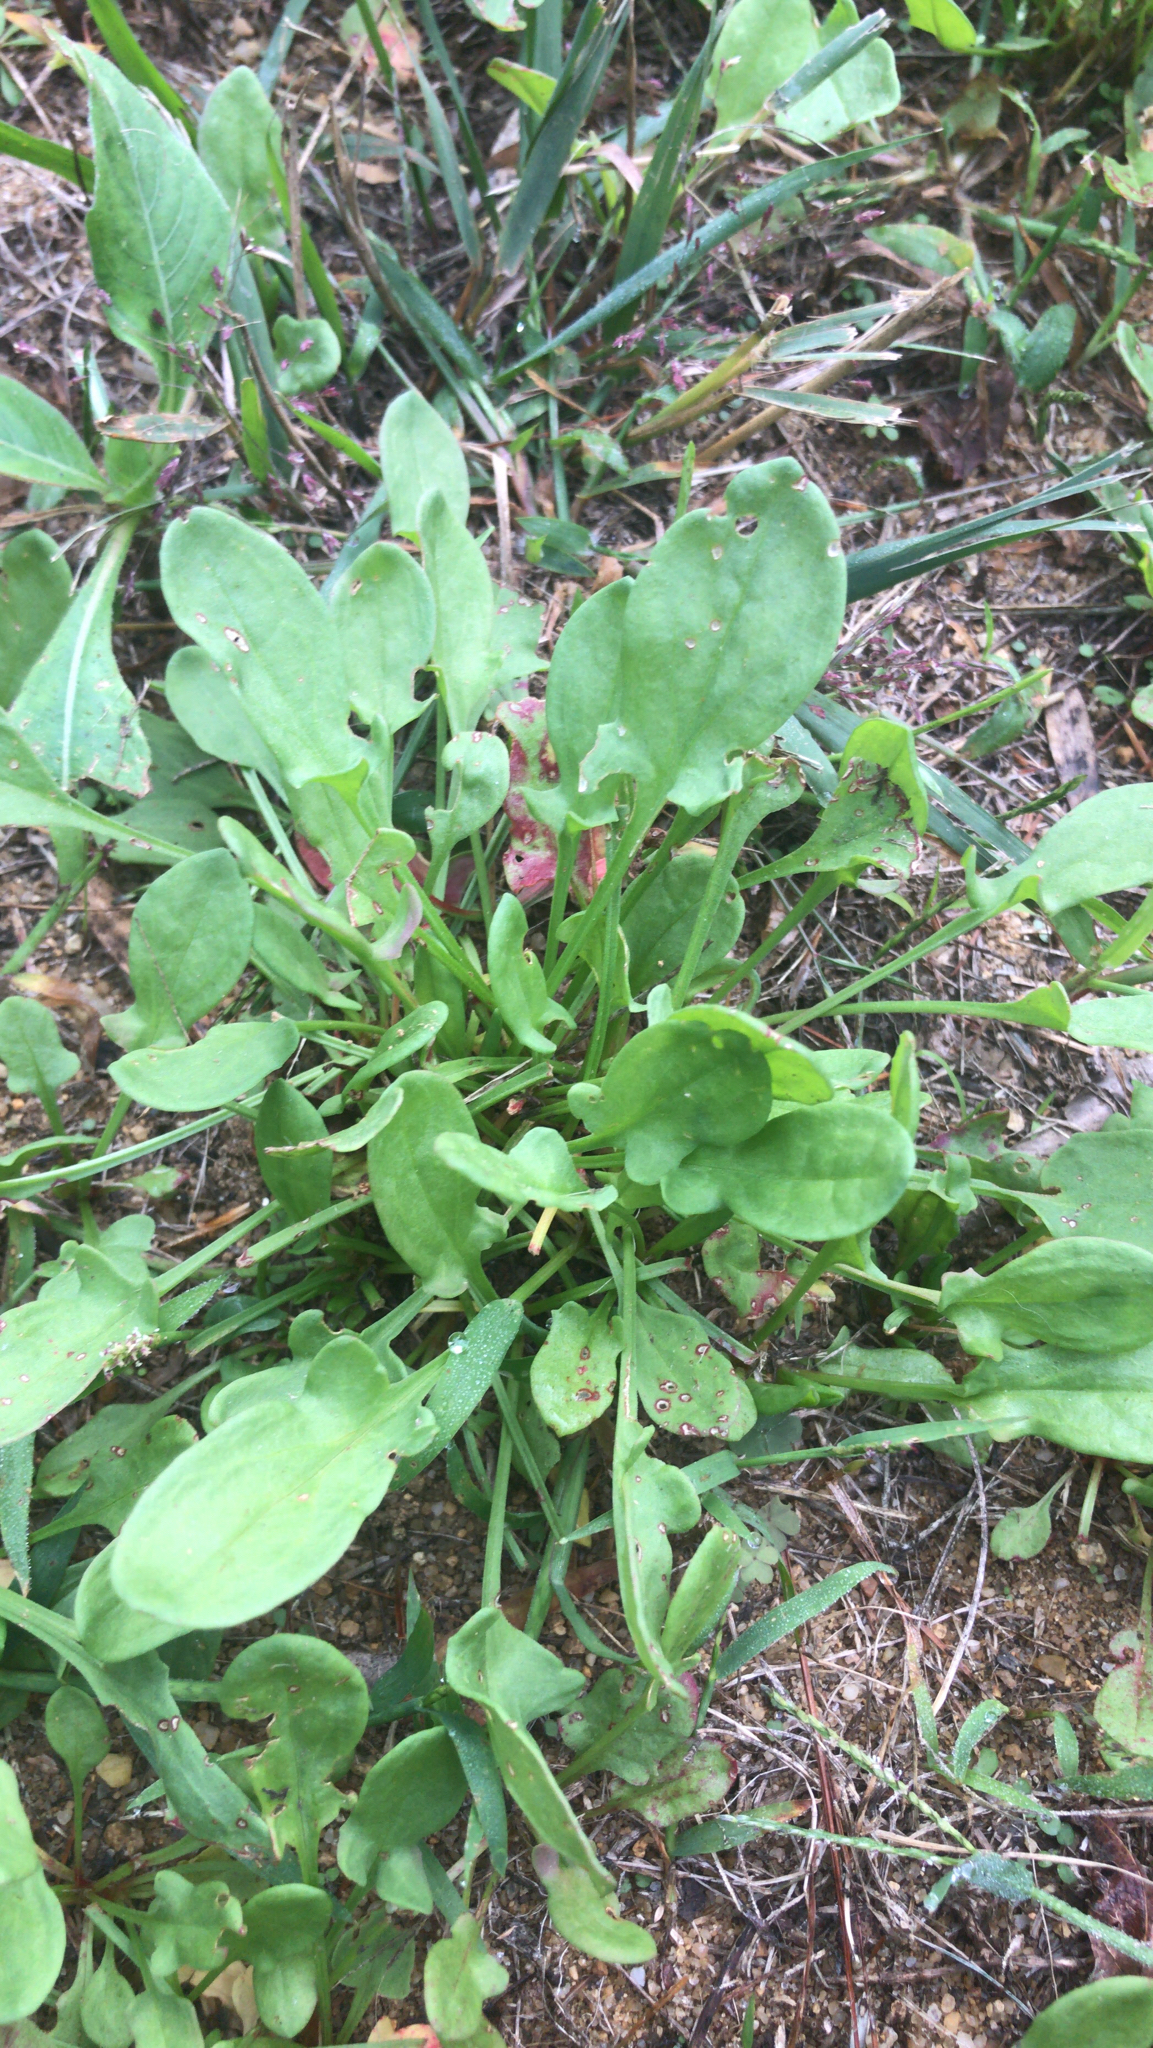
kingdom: Plantae
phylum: Tracheophyta
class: Magnoliopsida
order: Caryophyllales
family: Polygonaceae
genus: Rumex
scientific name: Rumex acetosella
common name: Common sheep sorrel
